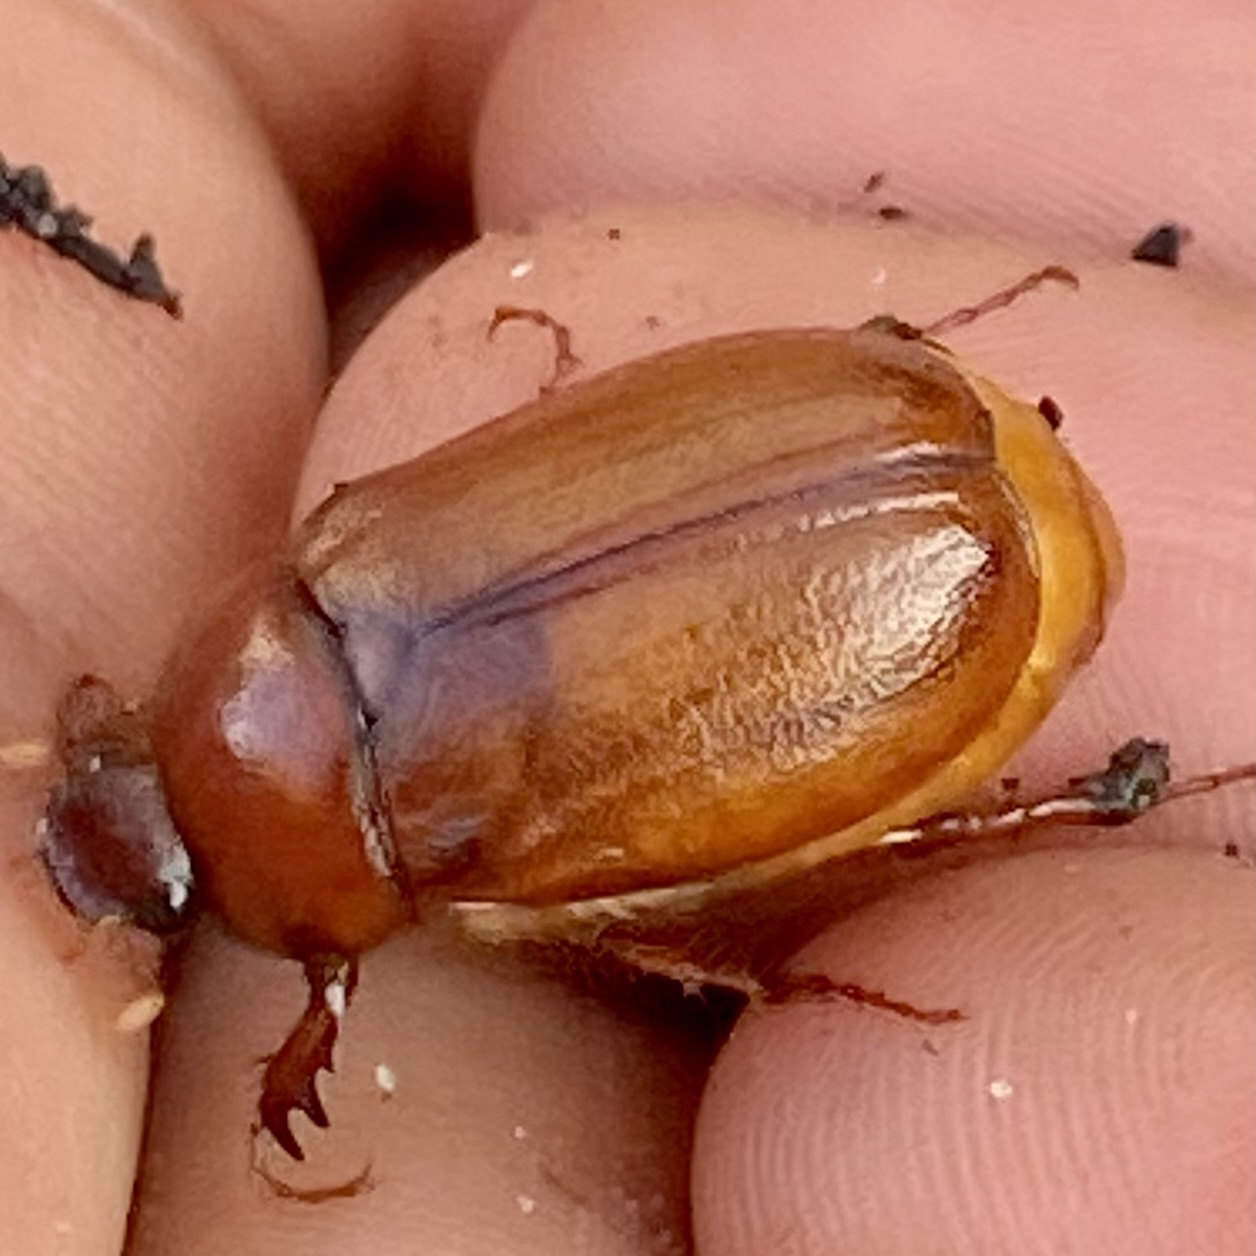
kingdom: Animalia
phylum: Arthropoda
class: Insecta
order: Coleoptera
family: Scarabaeidae
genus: Cyclocephala
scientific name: Cyclocephala lurida
